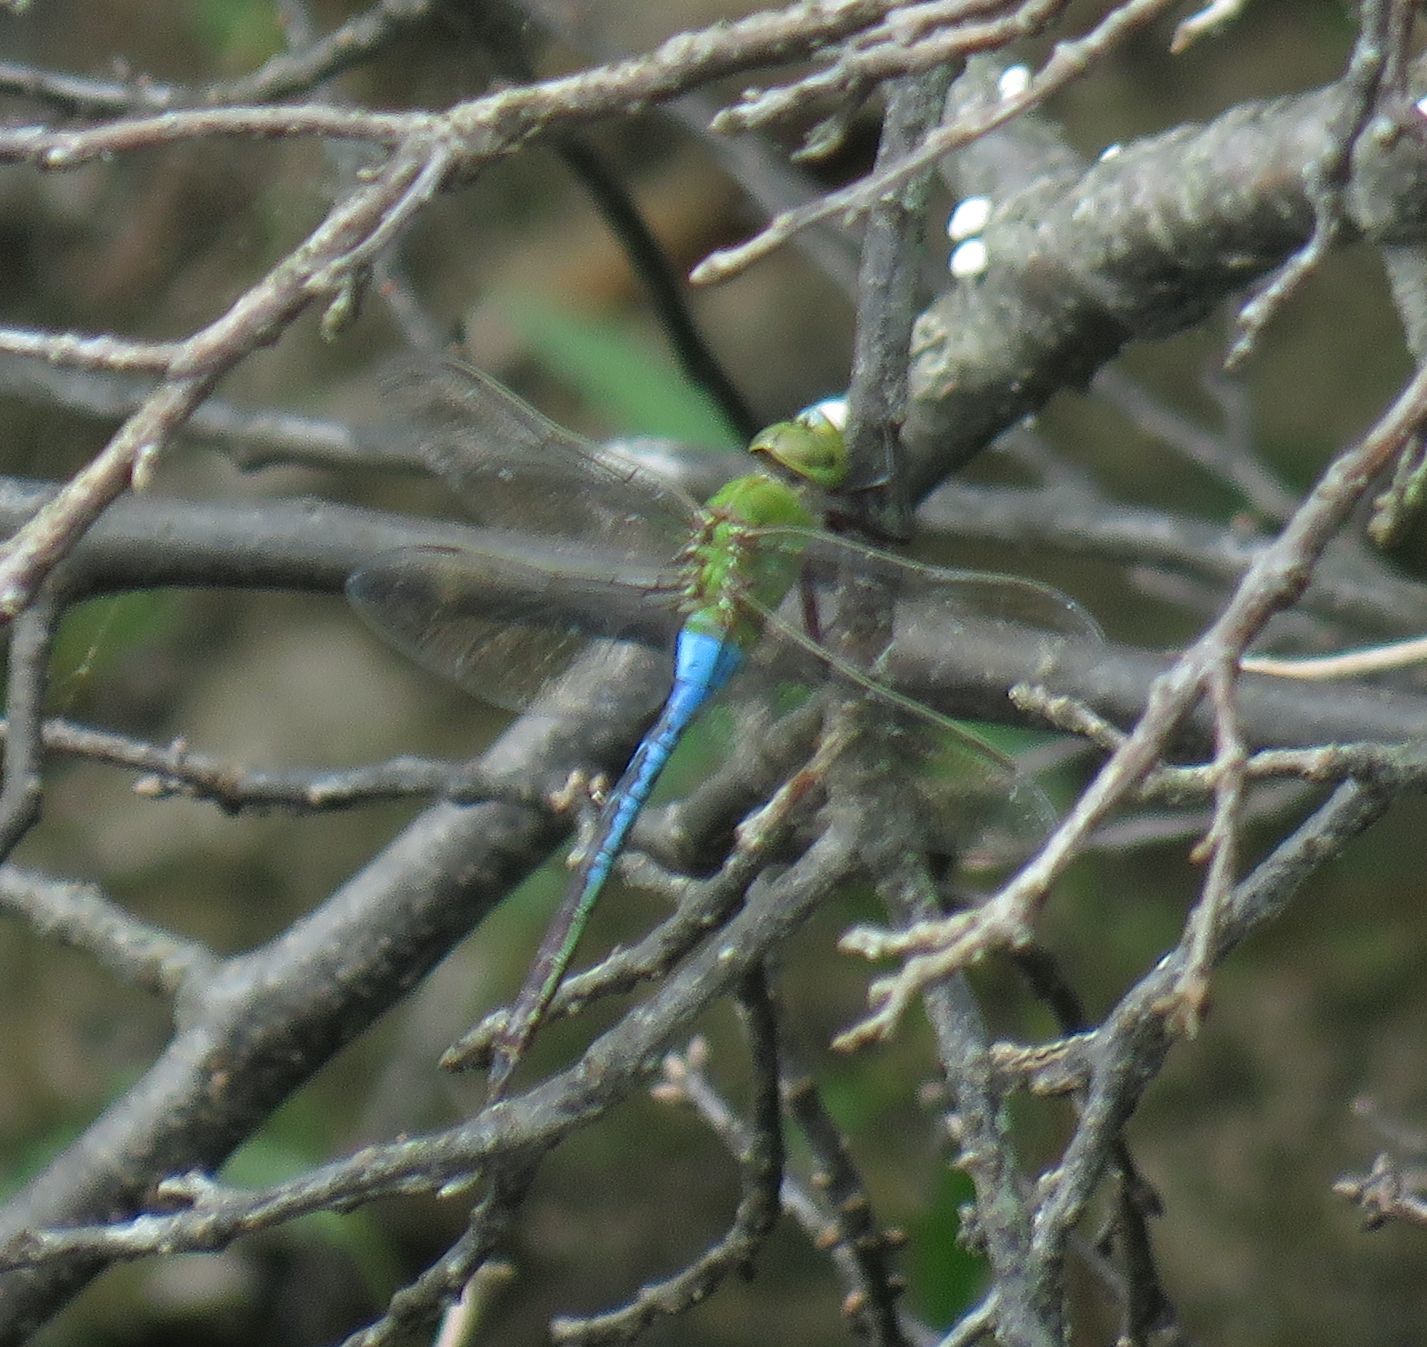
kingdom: Animalia
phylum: Arthropoda
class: Insecta
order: Odonata
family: Aeshnidae
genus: Anax
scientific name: Anax junius
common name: Common green darner
